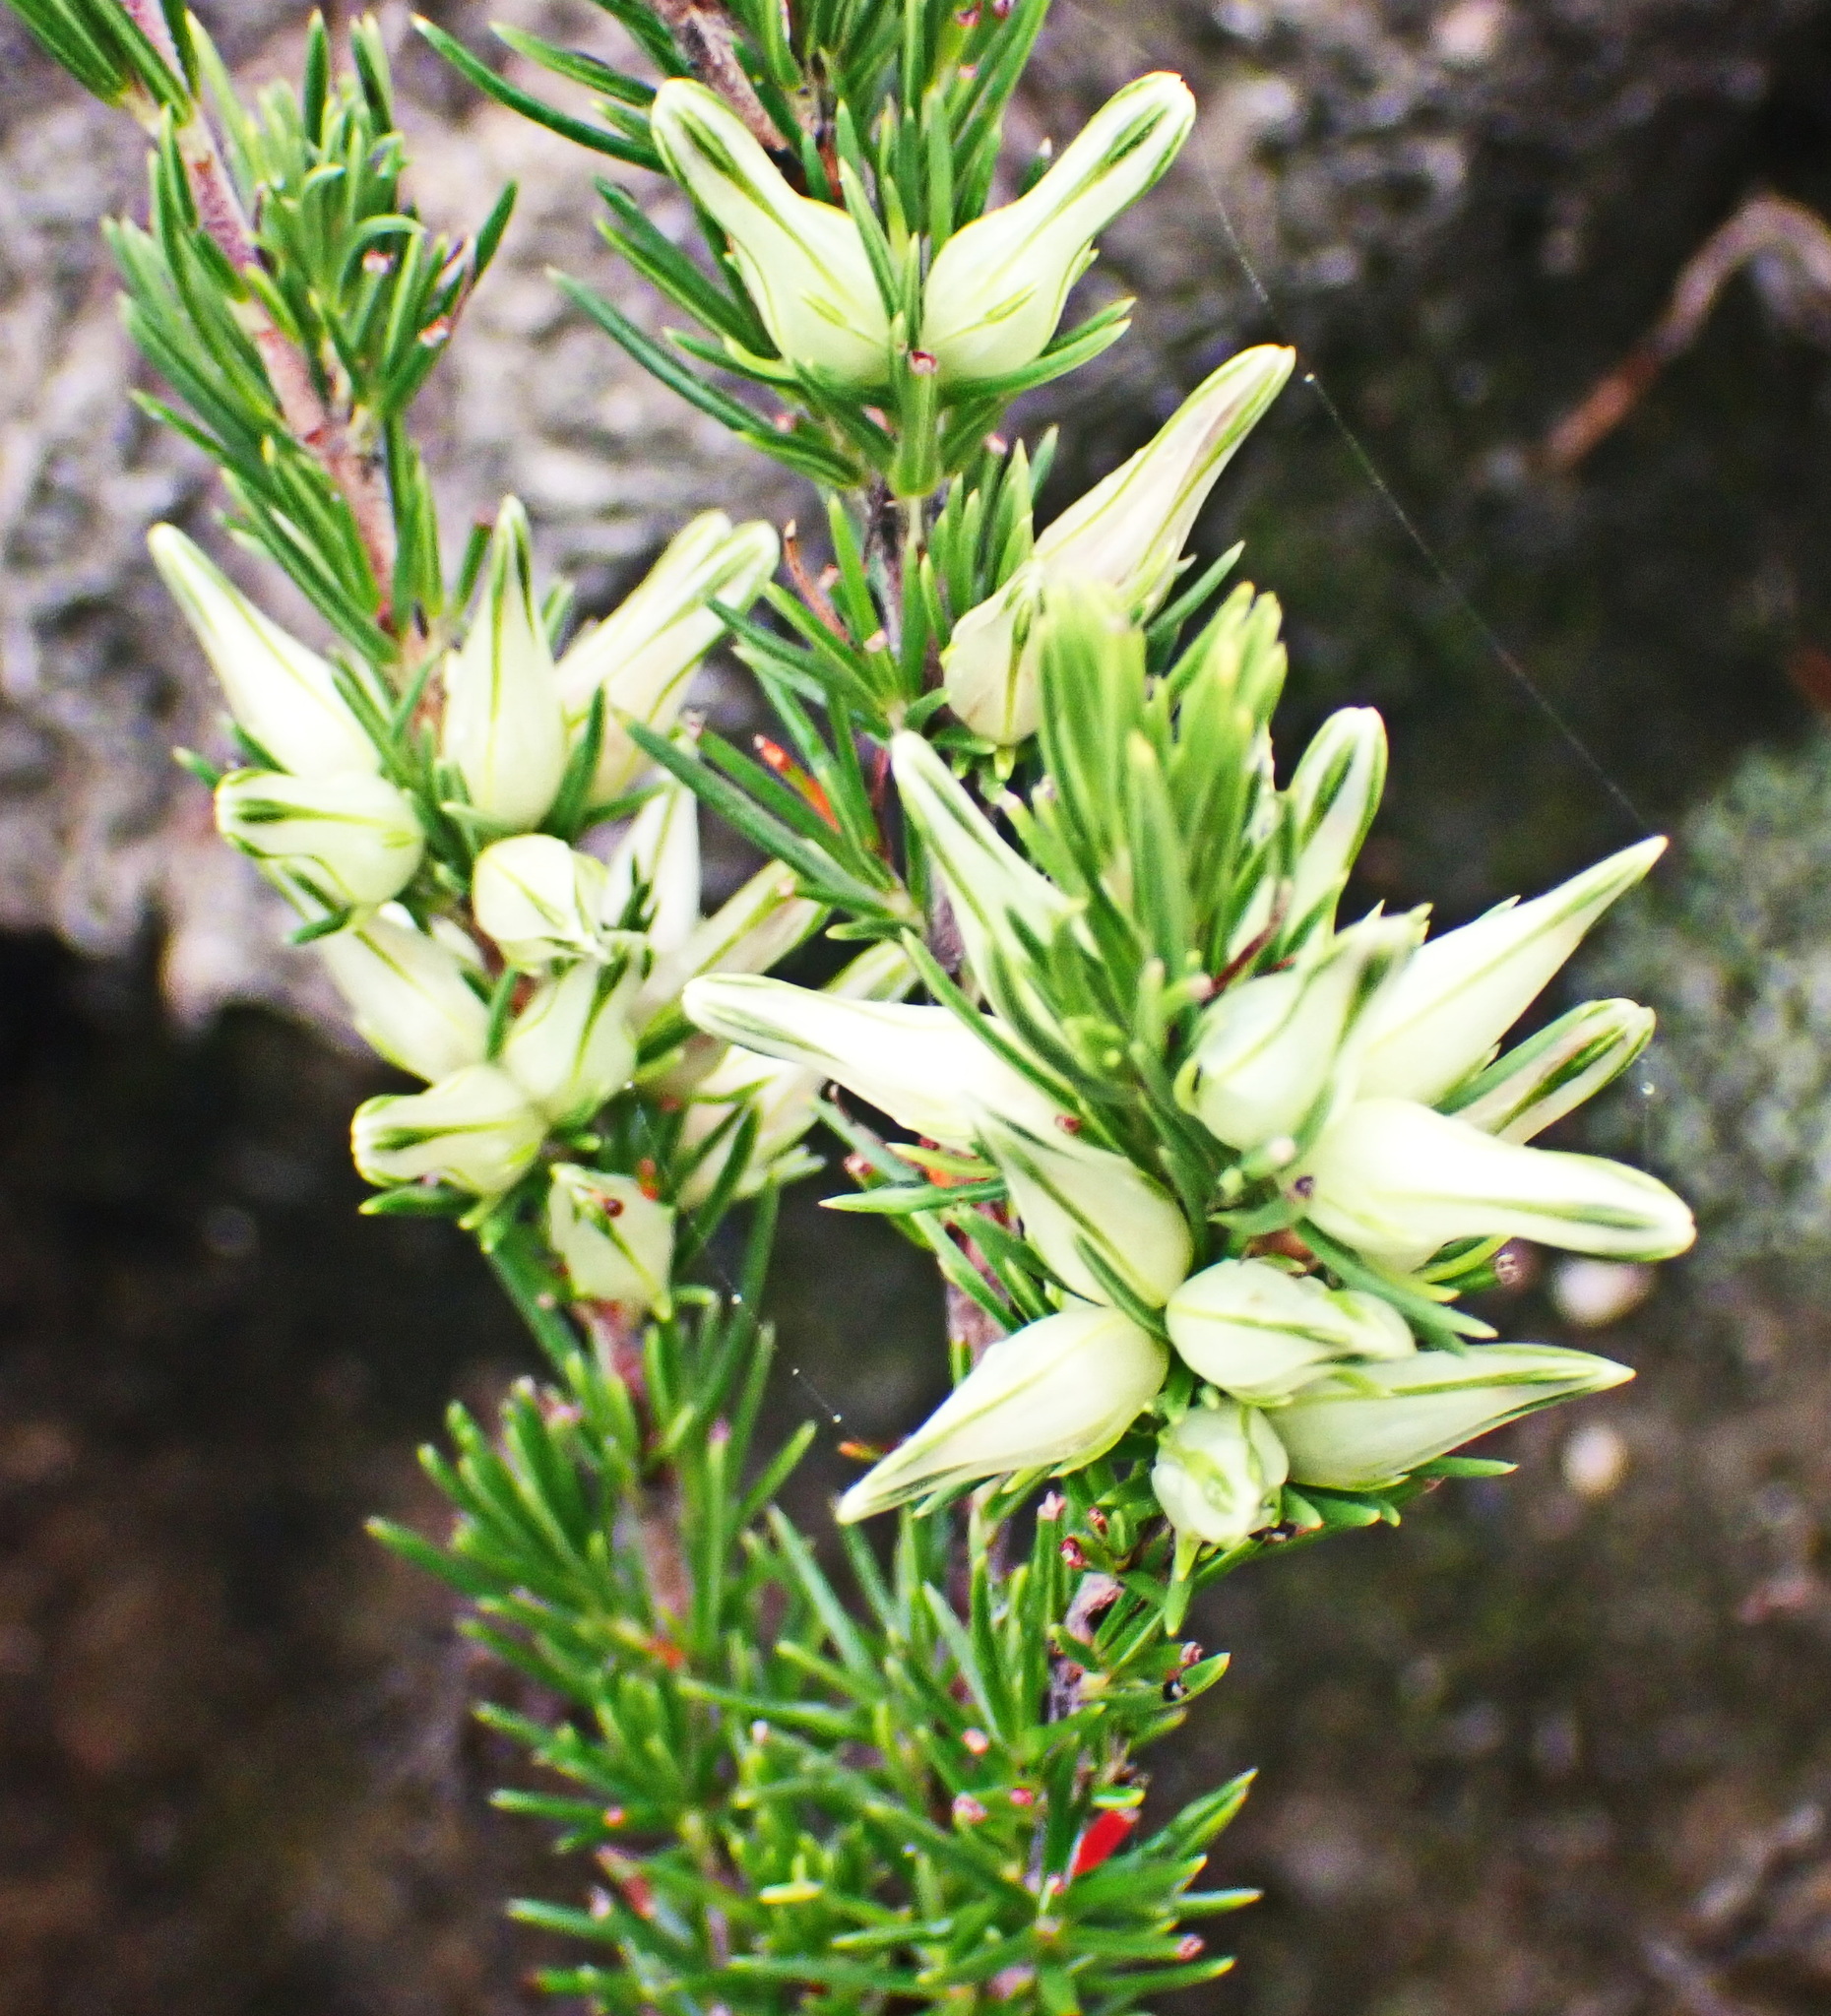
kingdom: Plantae
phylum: Tracheophyta
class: Magnoliopsida
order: Ericales
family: Ericaceae
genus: Erica
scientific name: Erica nabea
